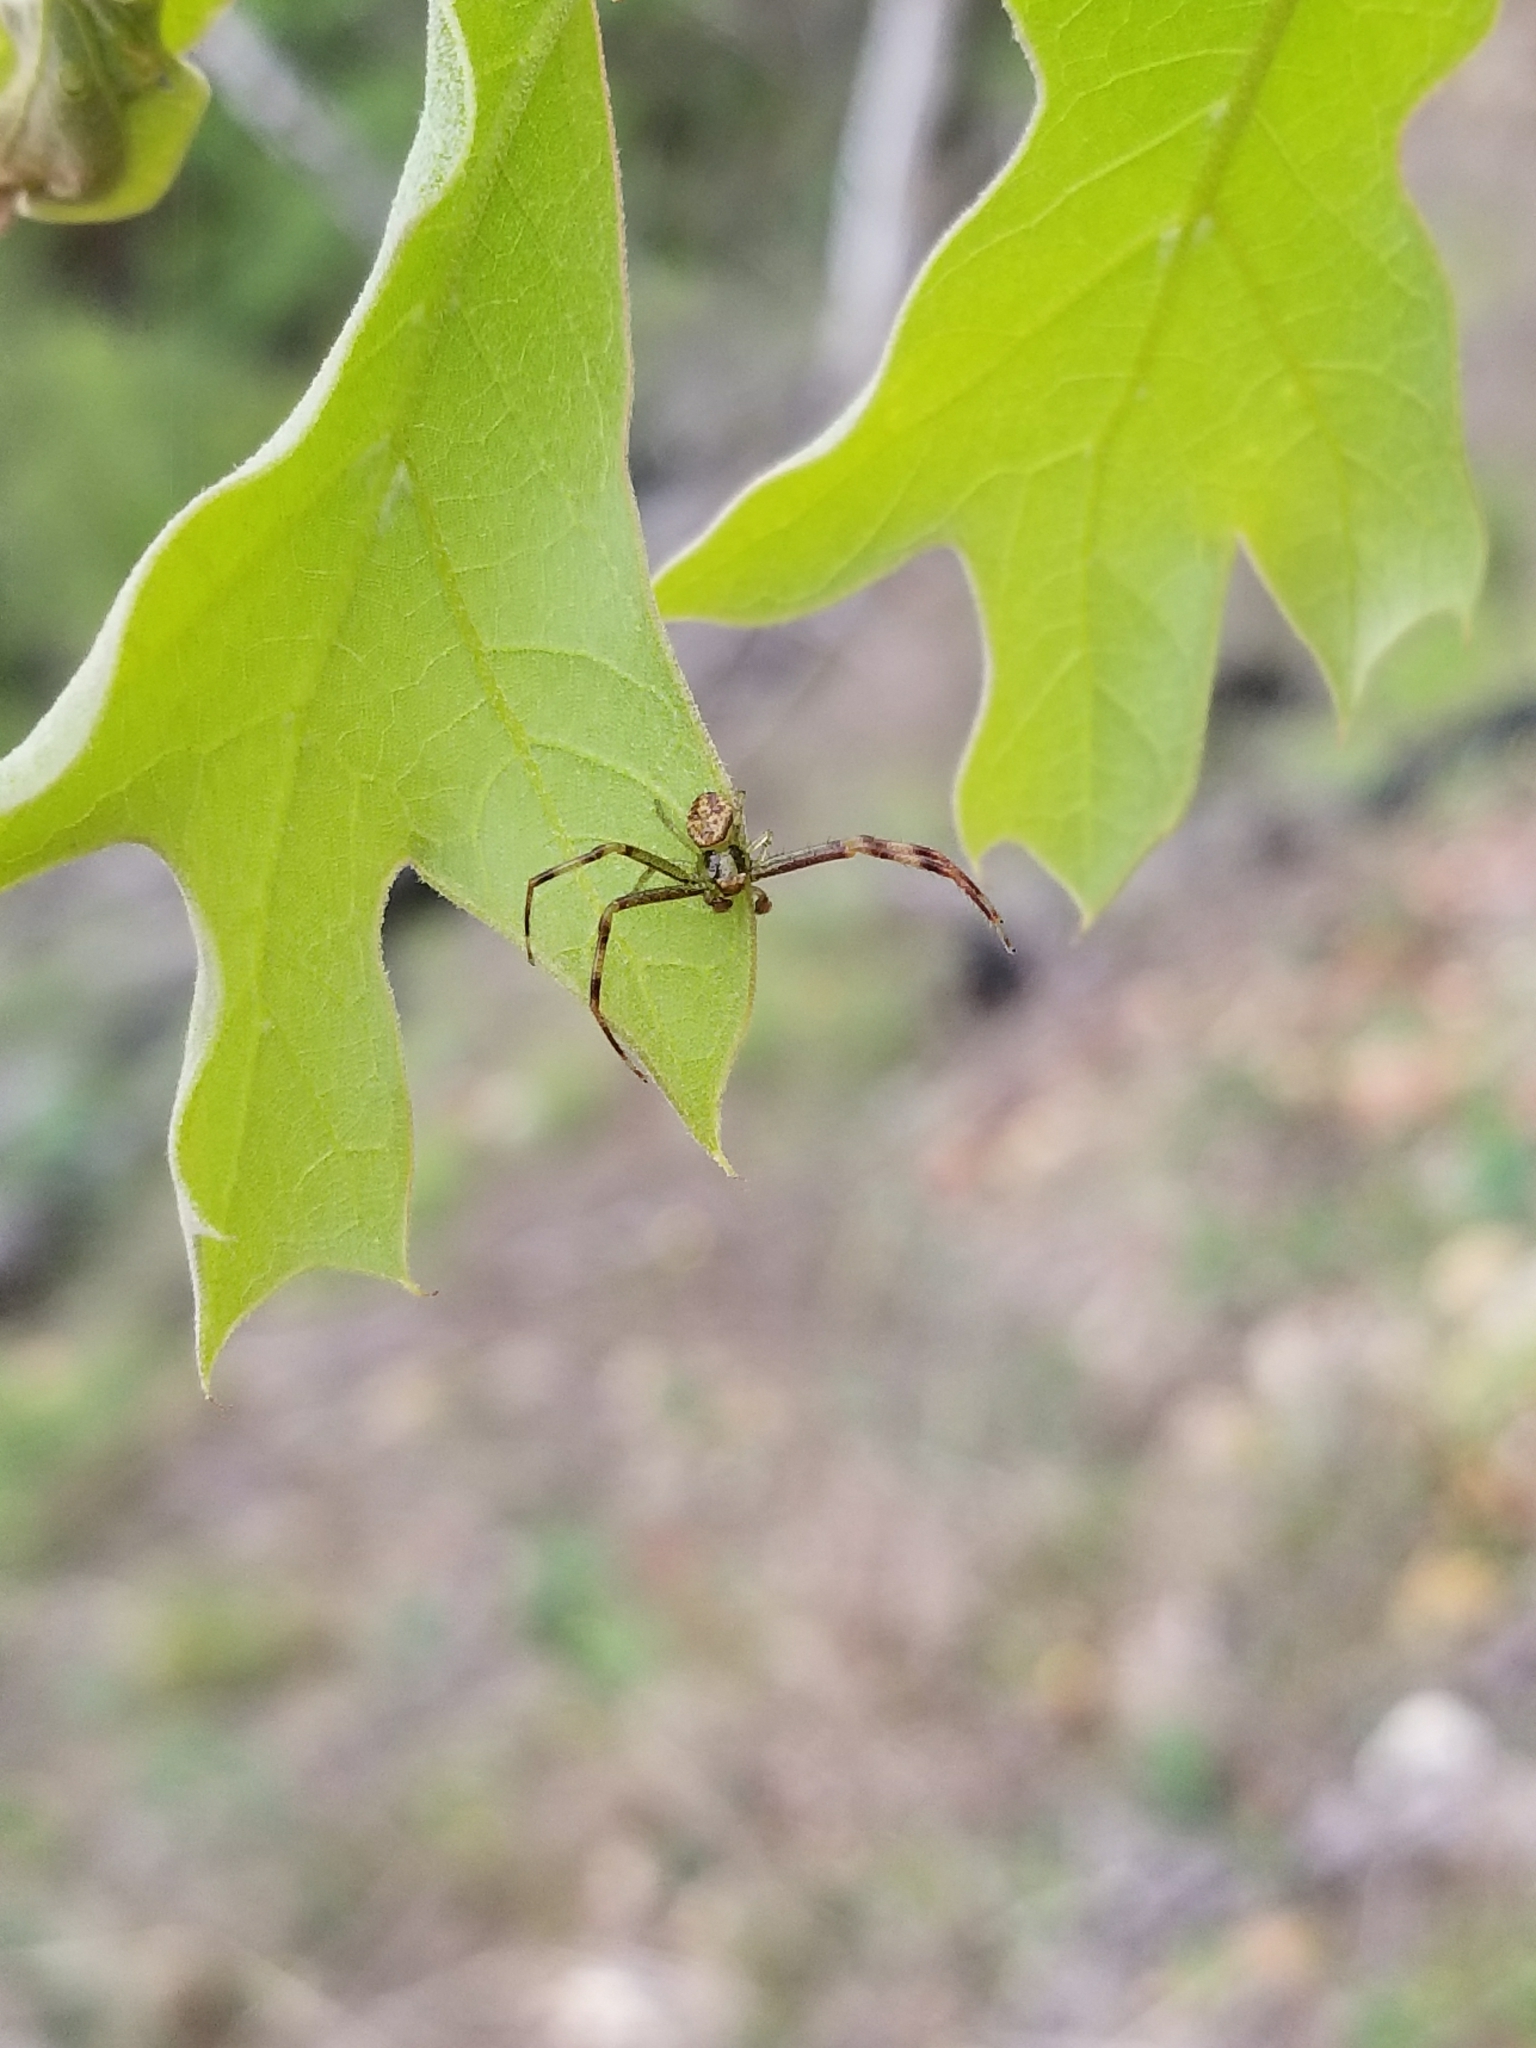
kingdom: Animalia
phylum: Arthropoda
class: Arachnida
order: Araneae
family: Thomisidae
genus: Mecaphesa
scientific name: Mecaphesa asperata
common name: Crab spiders
